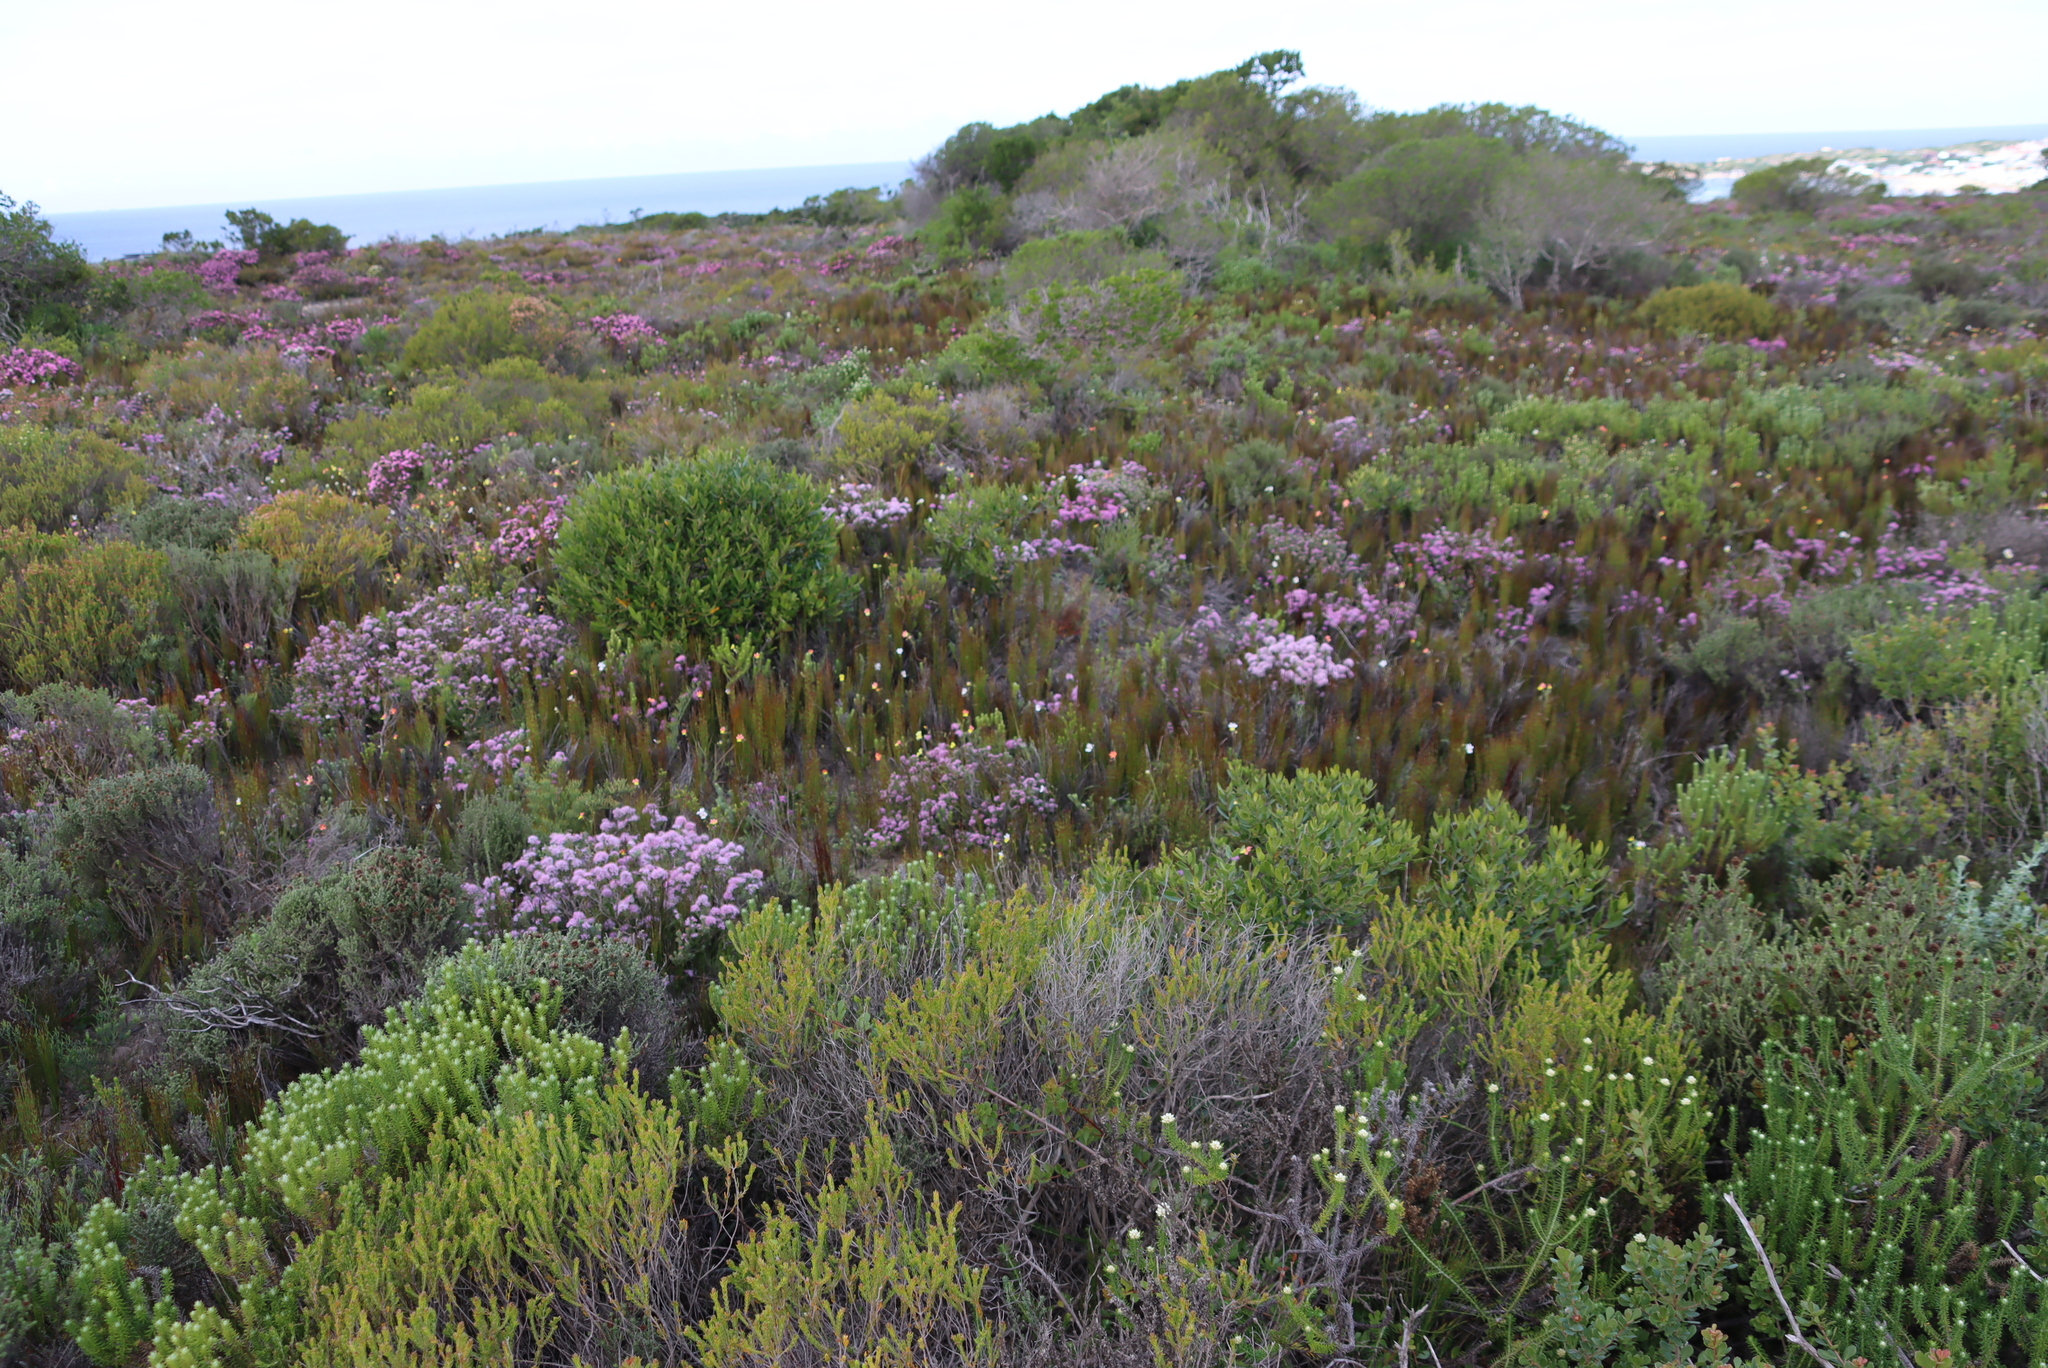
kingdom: Plantae
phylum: Tracheophyta
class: Liliopsida
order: Poales
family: Restionaceae
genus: Elegia
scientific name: Elegia microcarpa
